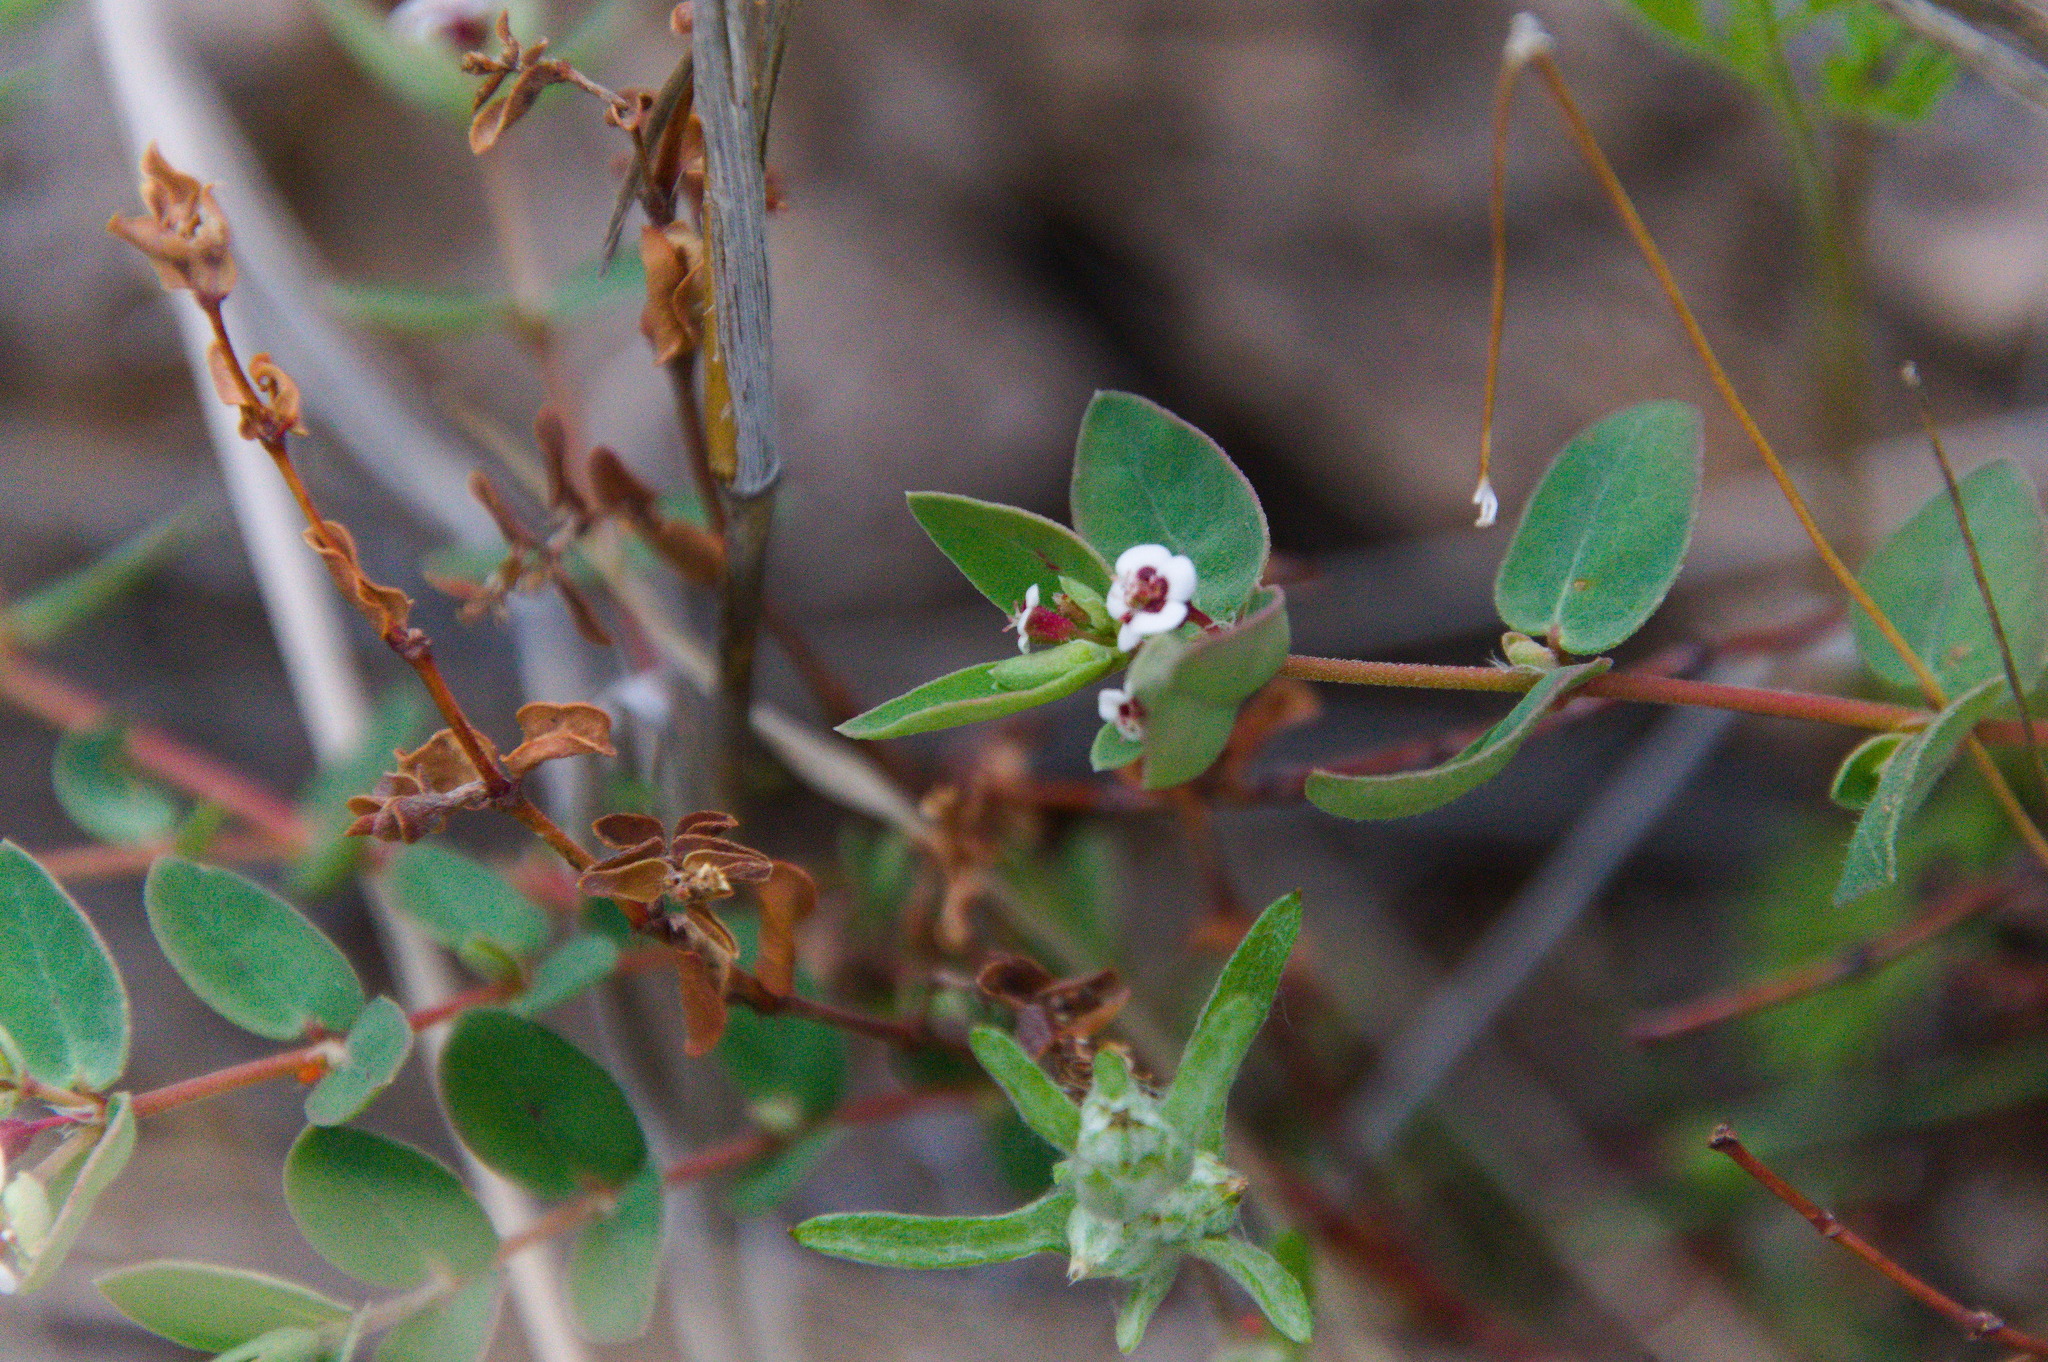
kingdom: Plantae
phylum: Tracheophyta
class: Magnoliopsida
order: Malpighiales
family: Euphorbiaceae
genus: Euphorbia
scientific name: Euphorbia capitellata
